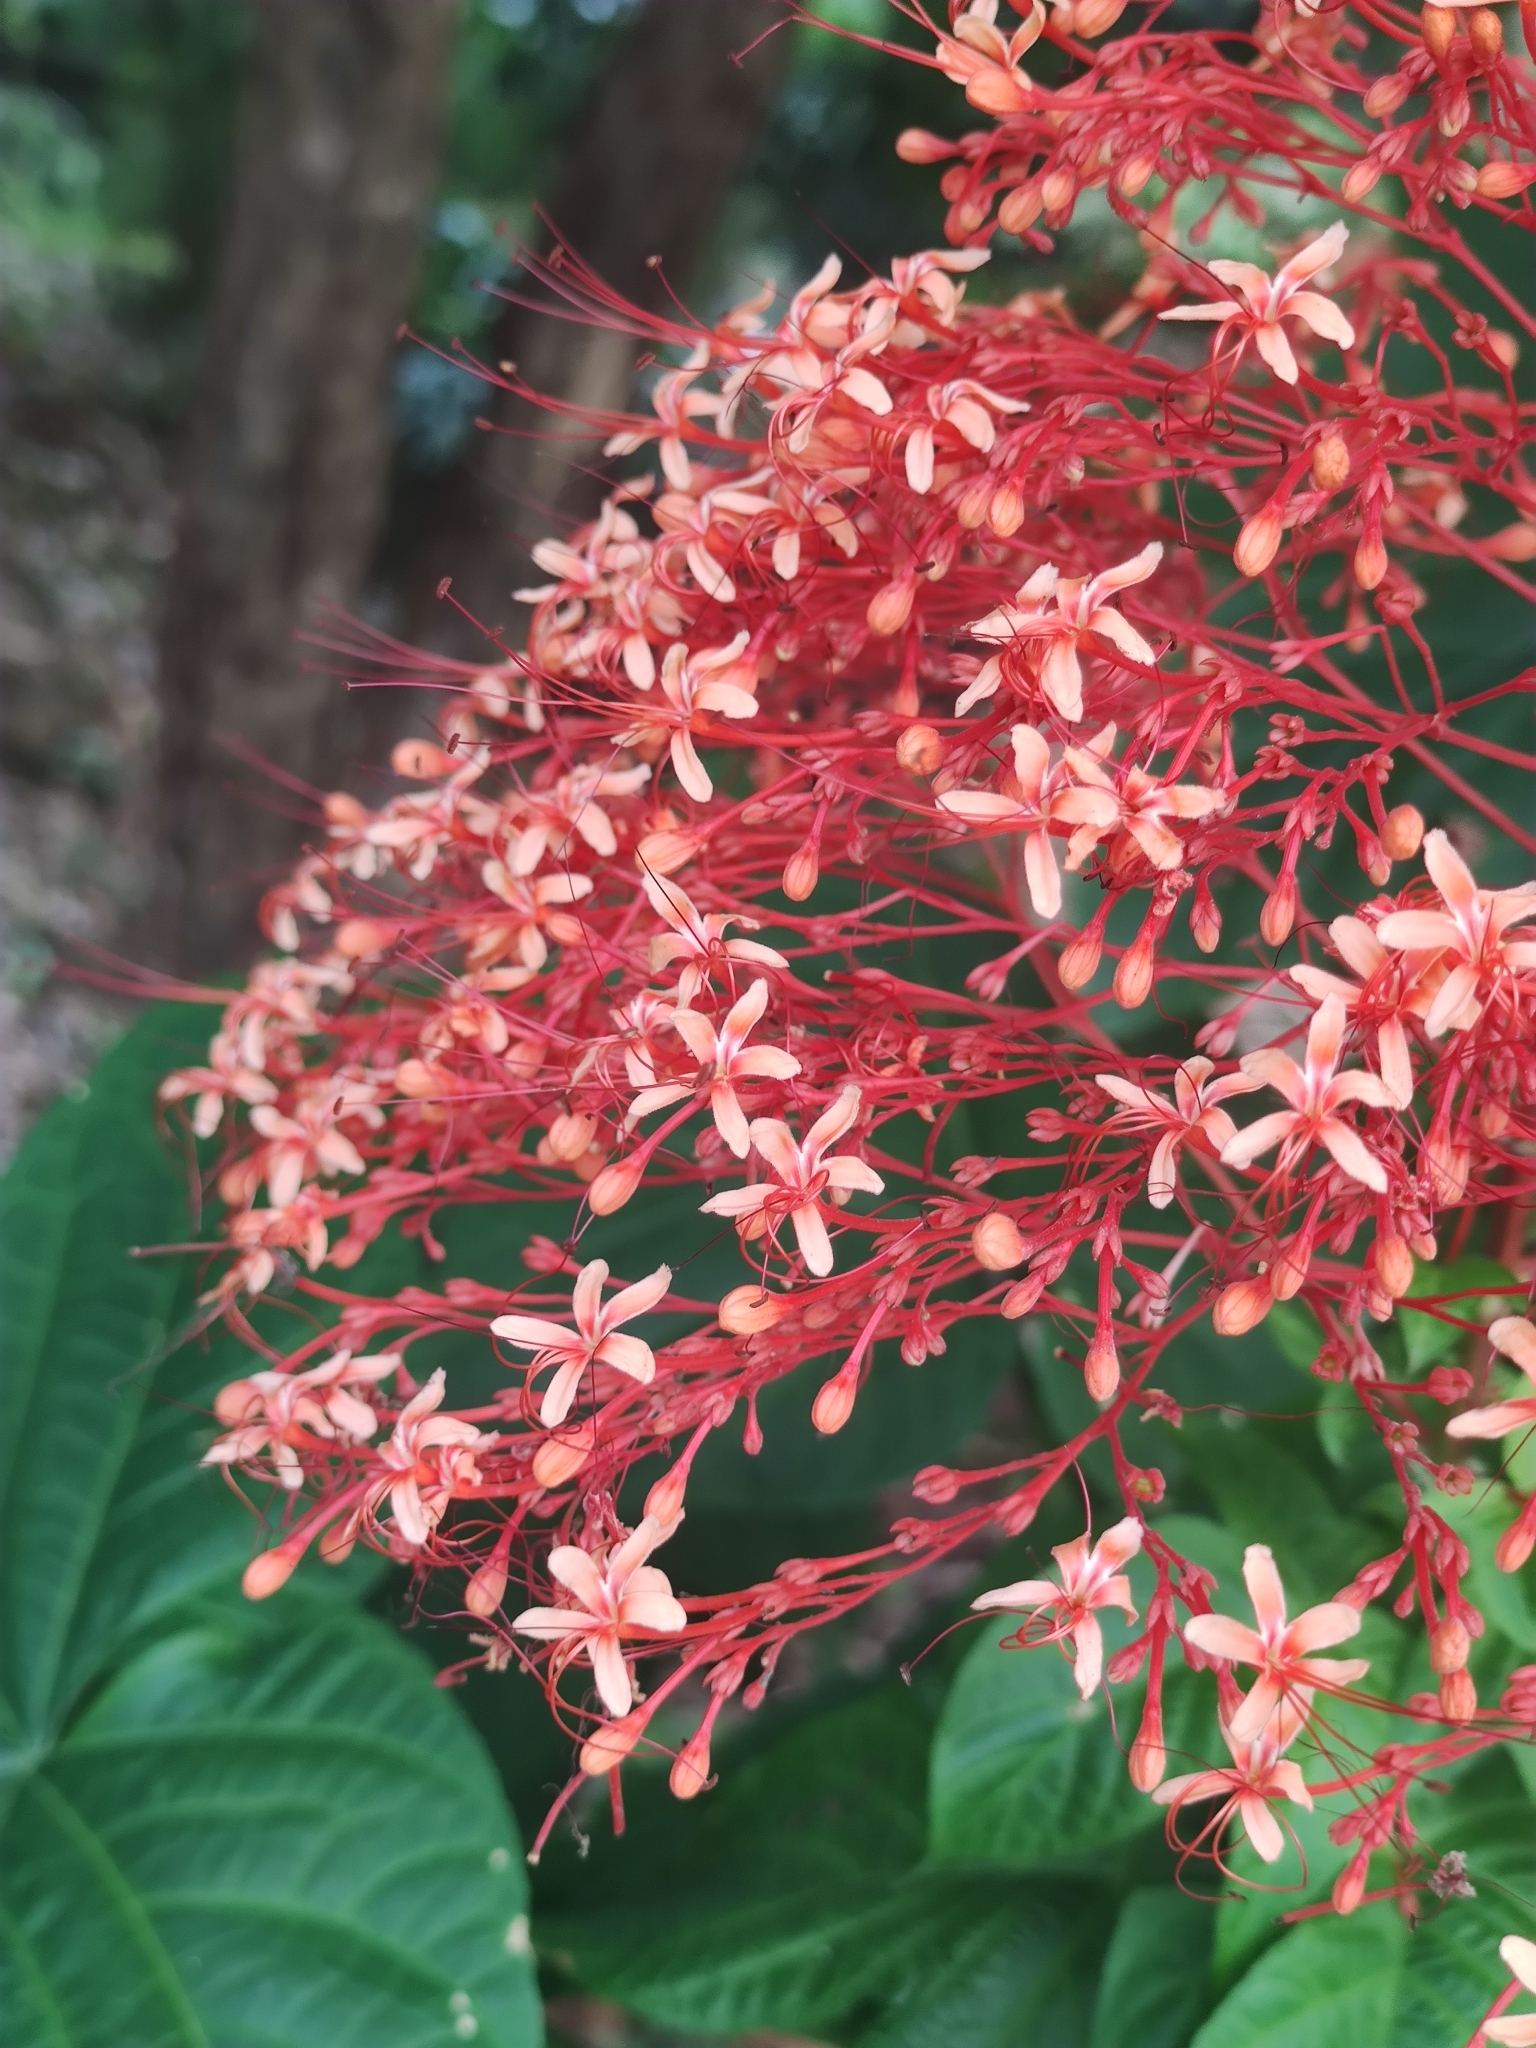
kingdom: Plantae
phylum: Tracheophyta
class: Magnoliopsida
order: Lamiales
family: Lamiaceae
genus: Clerodendrum
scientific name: Clerodendrum paniculatum
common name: Pagoda-flower
